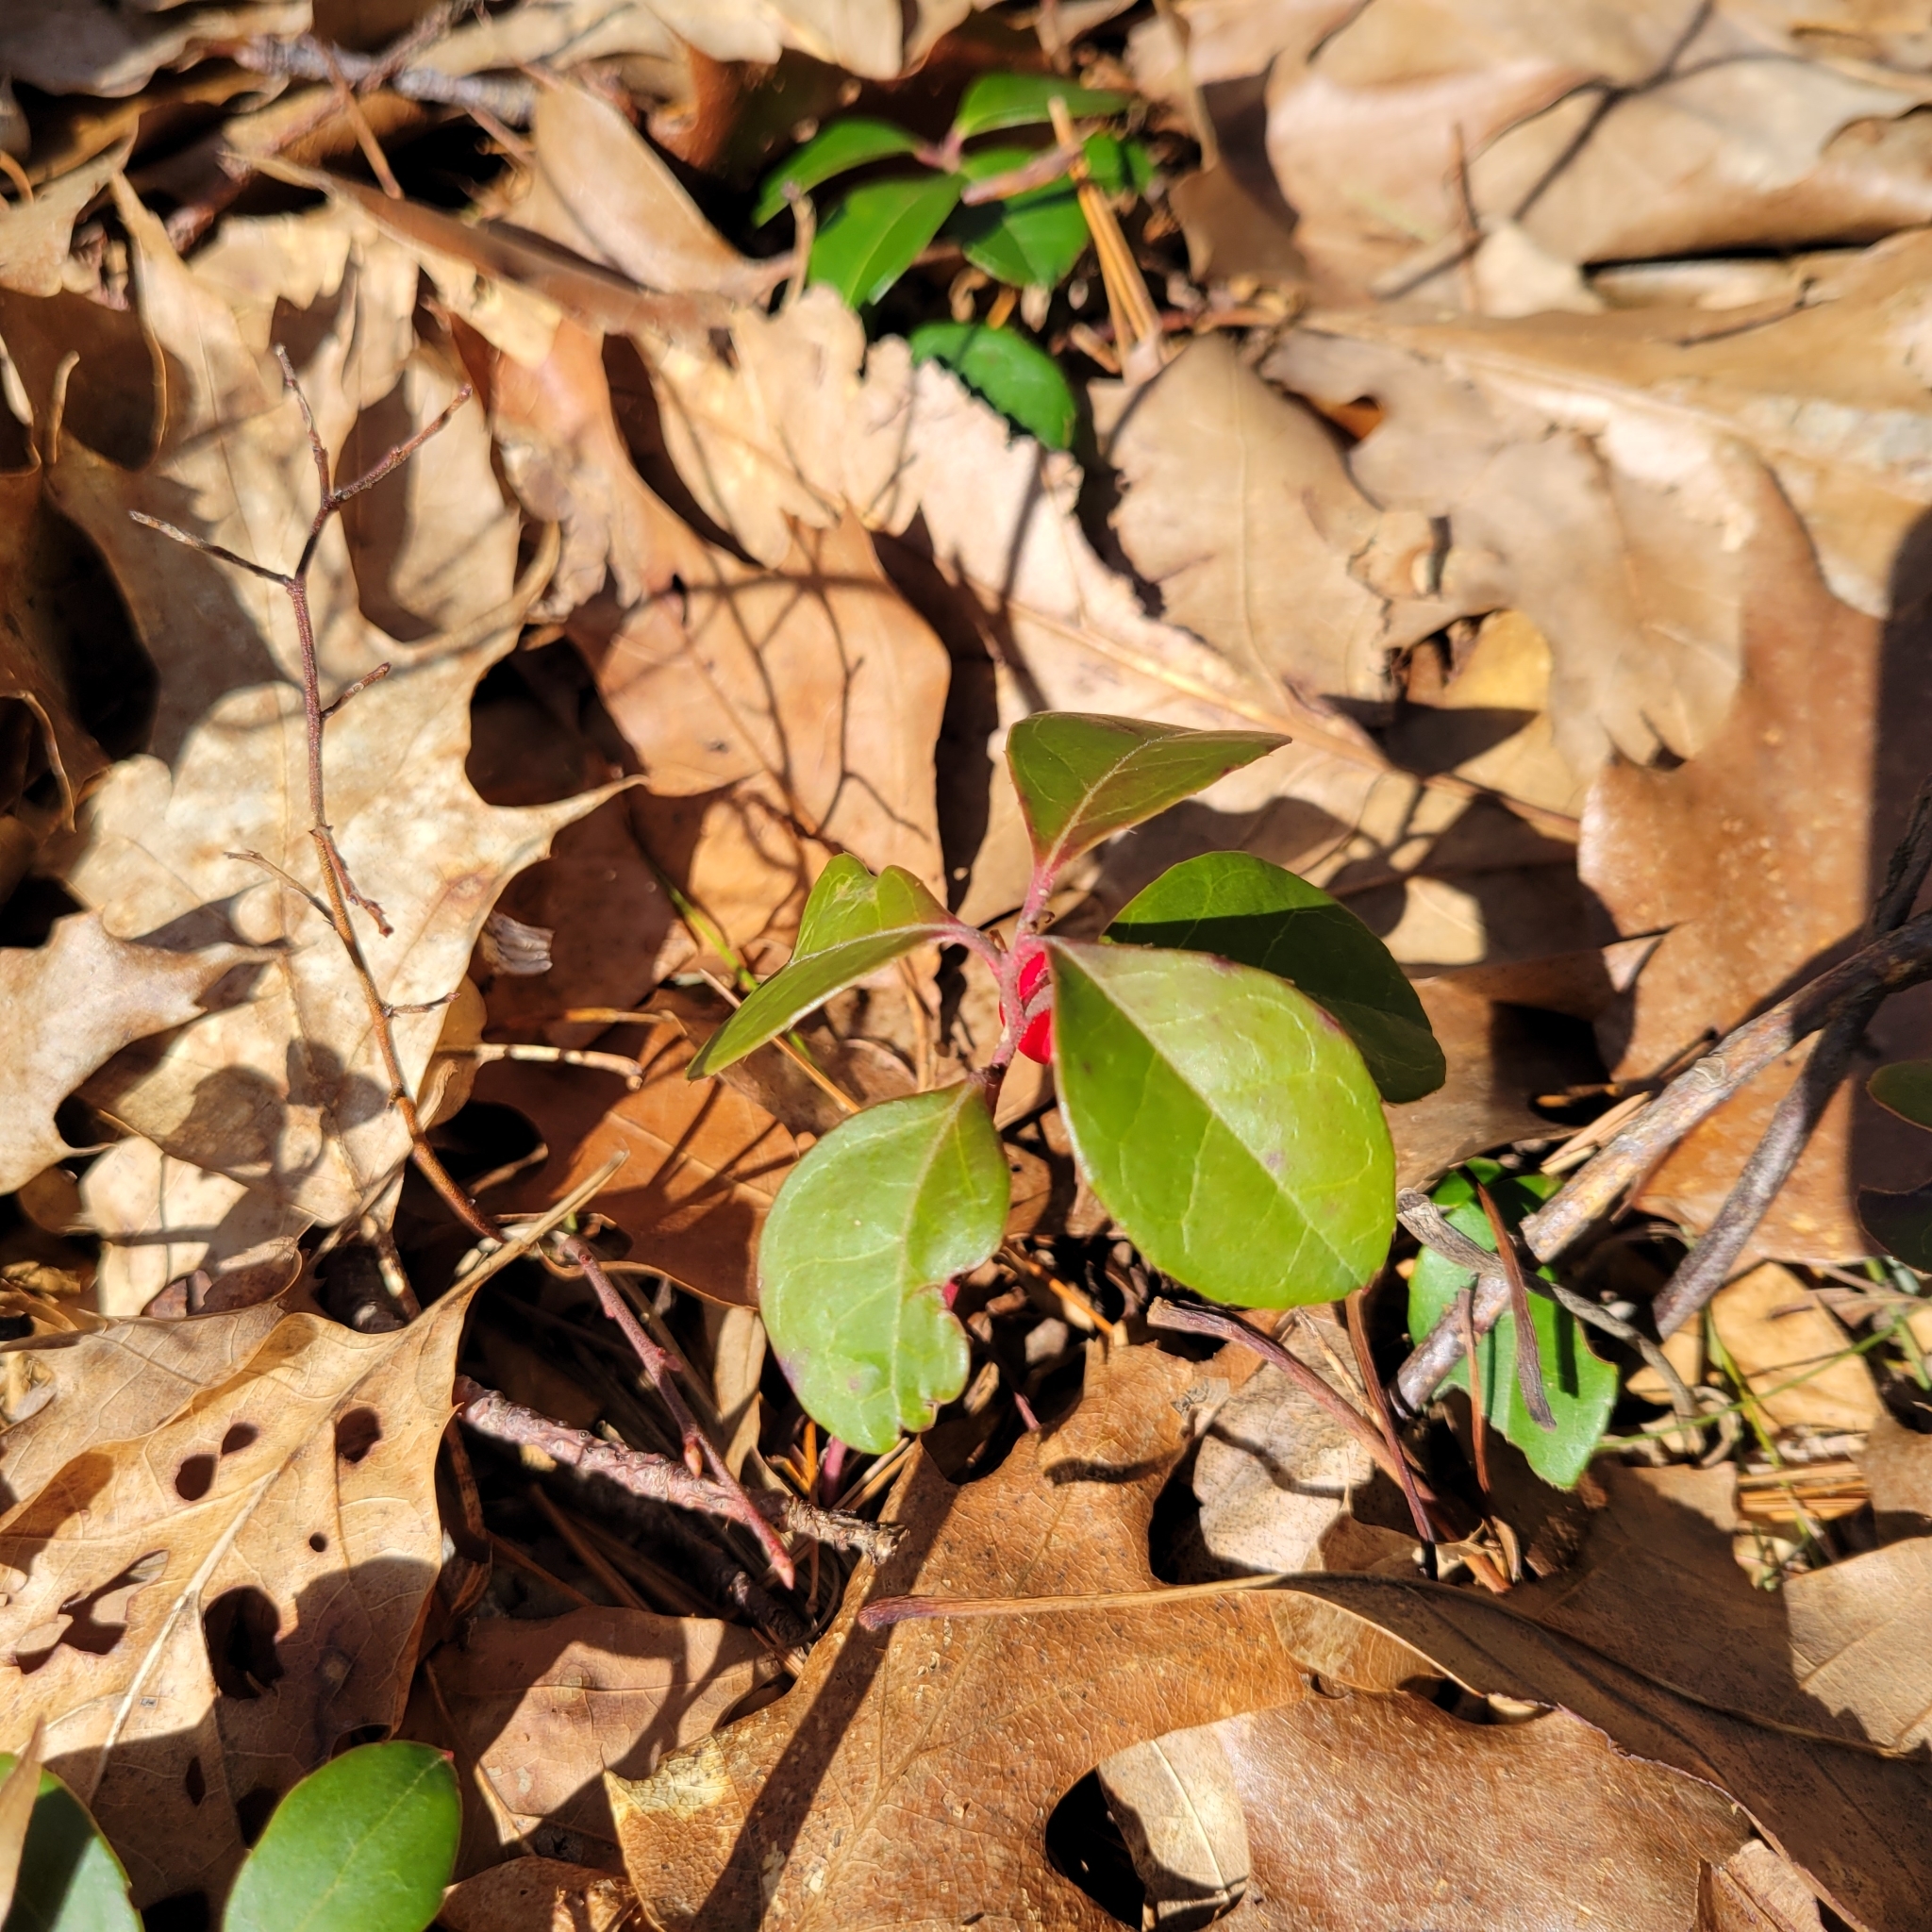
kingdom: Plantae
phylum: Tracheophyta
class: Magnoliopsida
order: Ericales
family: Ericaceae
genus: Gaultheria
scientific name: Gaultheria procumbens
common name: Checkerberry
